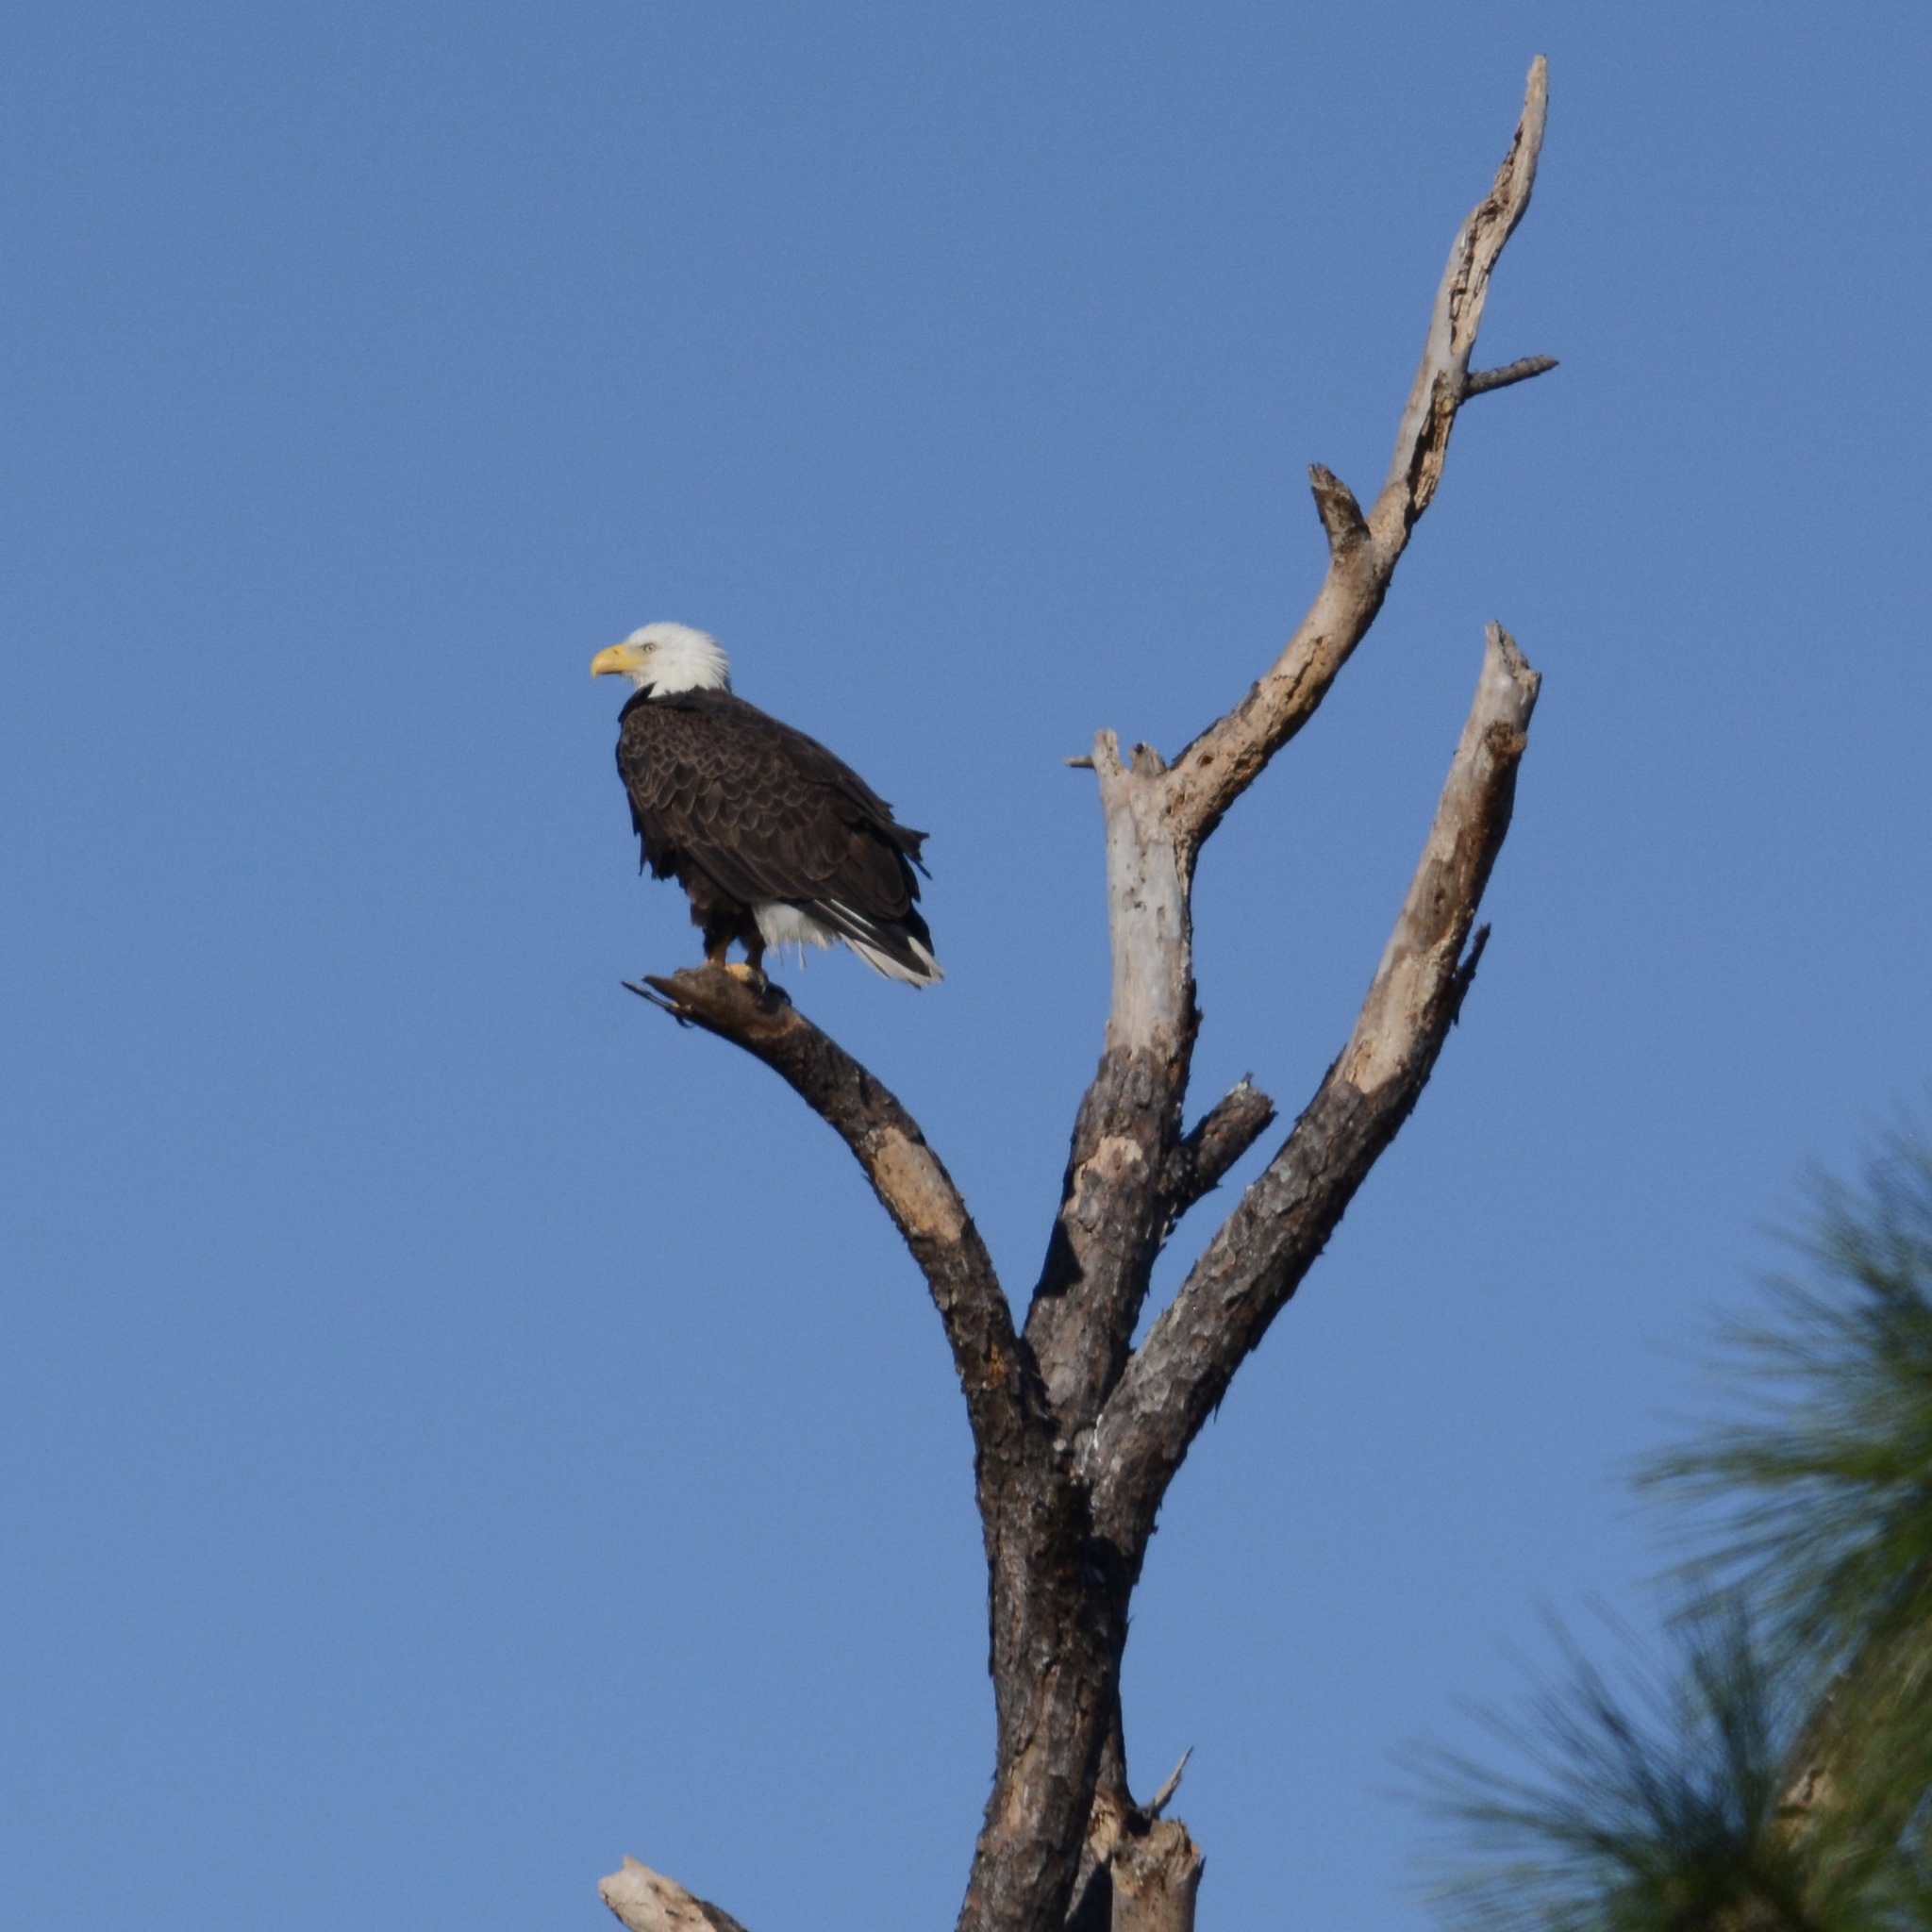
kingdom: Animalia
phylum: Chordata
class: Aves
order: Accipitriformes
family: Accipitridae
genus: Haliaeetus
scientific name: Haliaeetus leucocephalus
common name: Bald eagle
